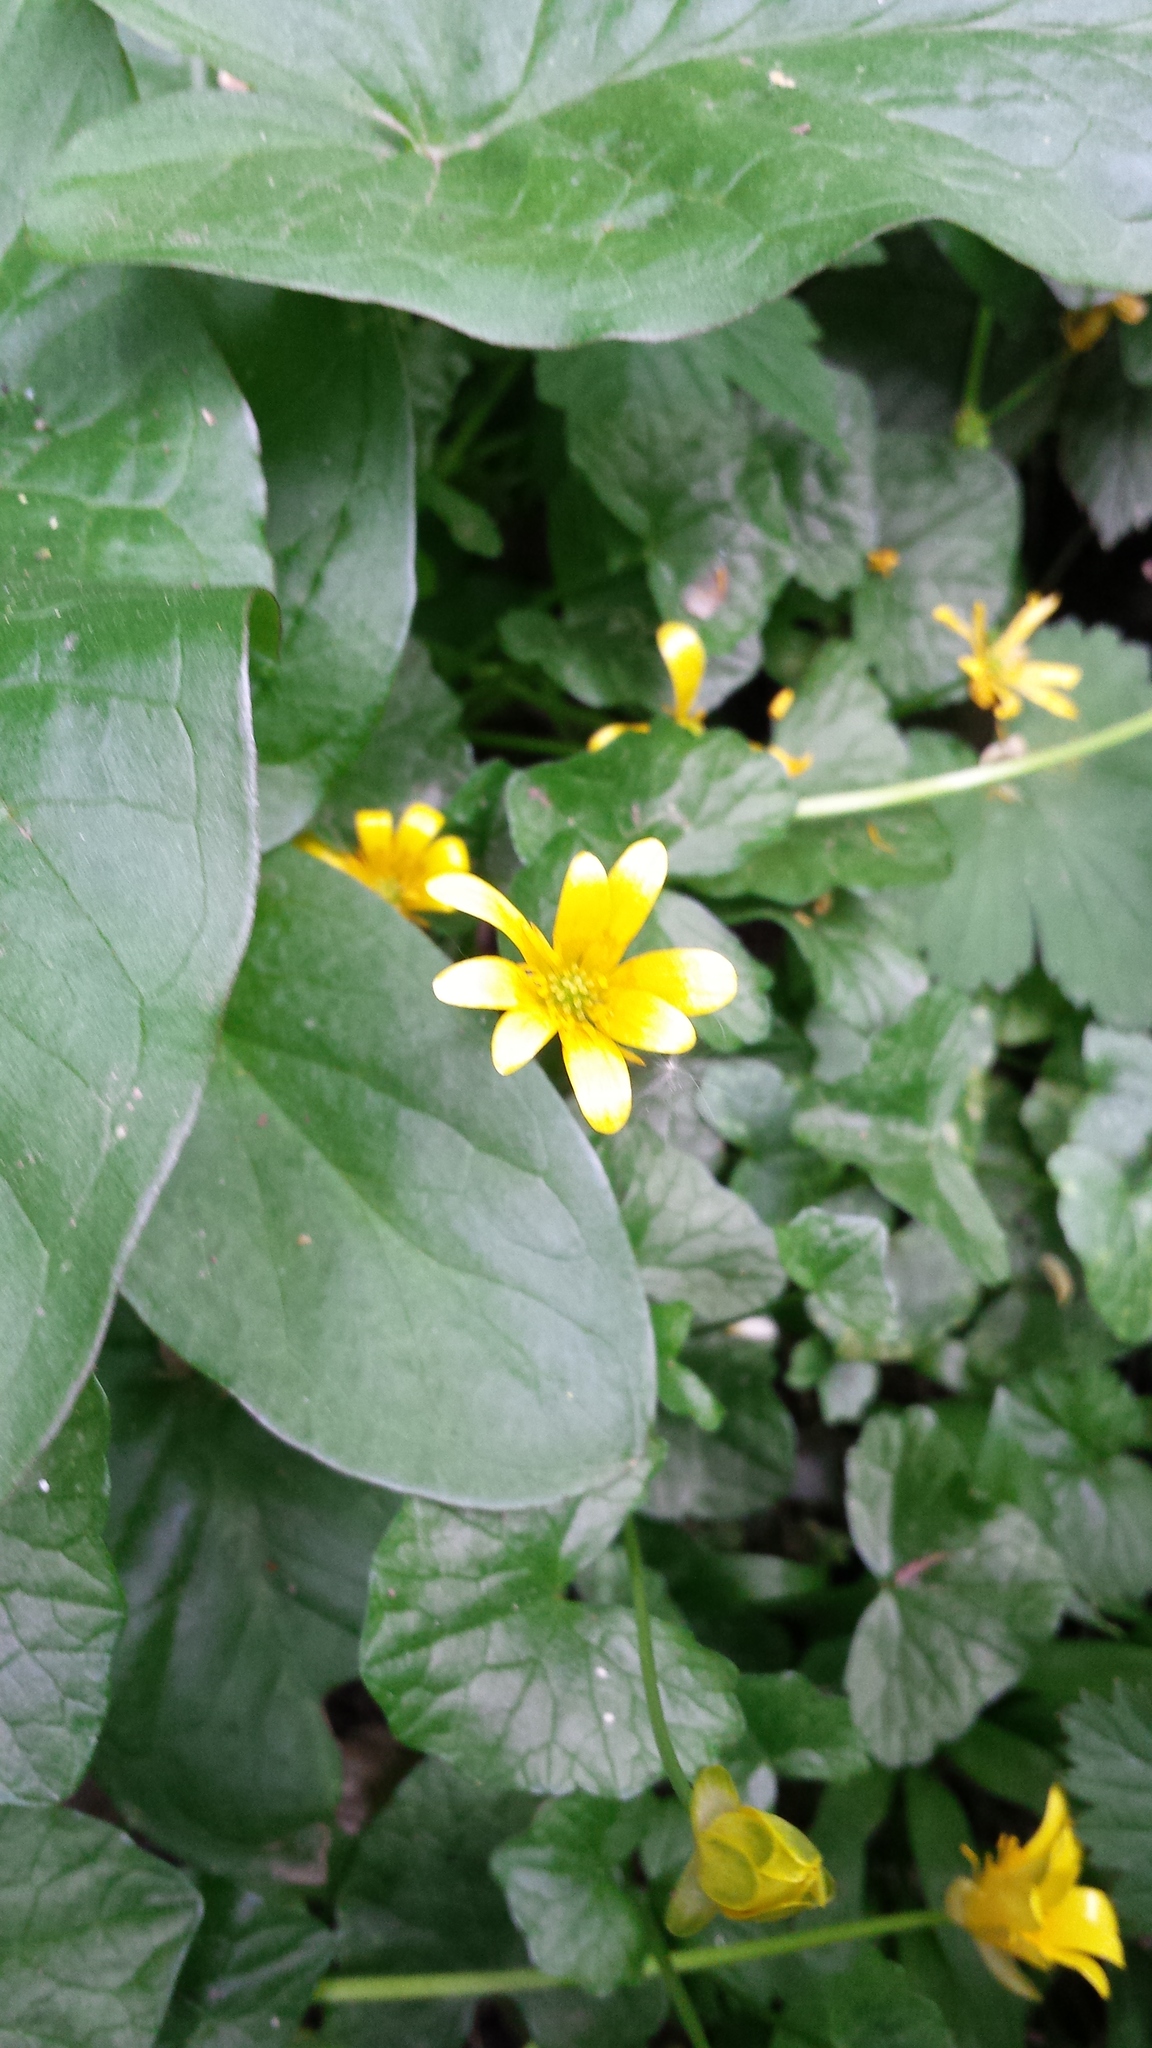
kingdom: Plantae
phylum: Tracheophyta
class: Magnoliopsida
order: Ranunculales
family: Ranunculaceae
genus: Ficaria
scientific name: Ficaria verna
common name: Lesser celandine
